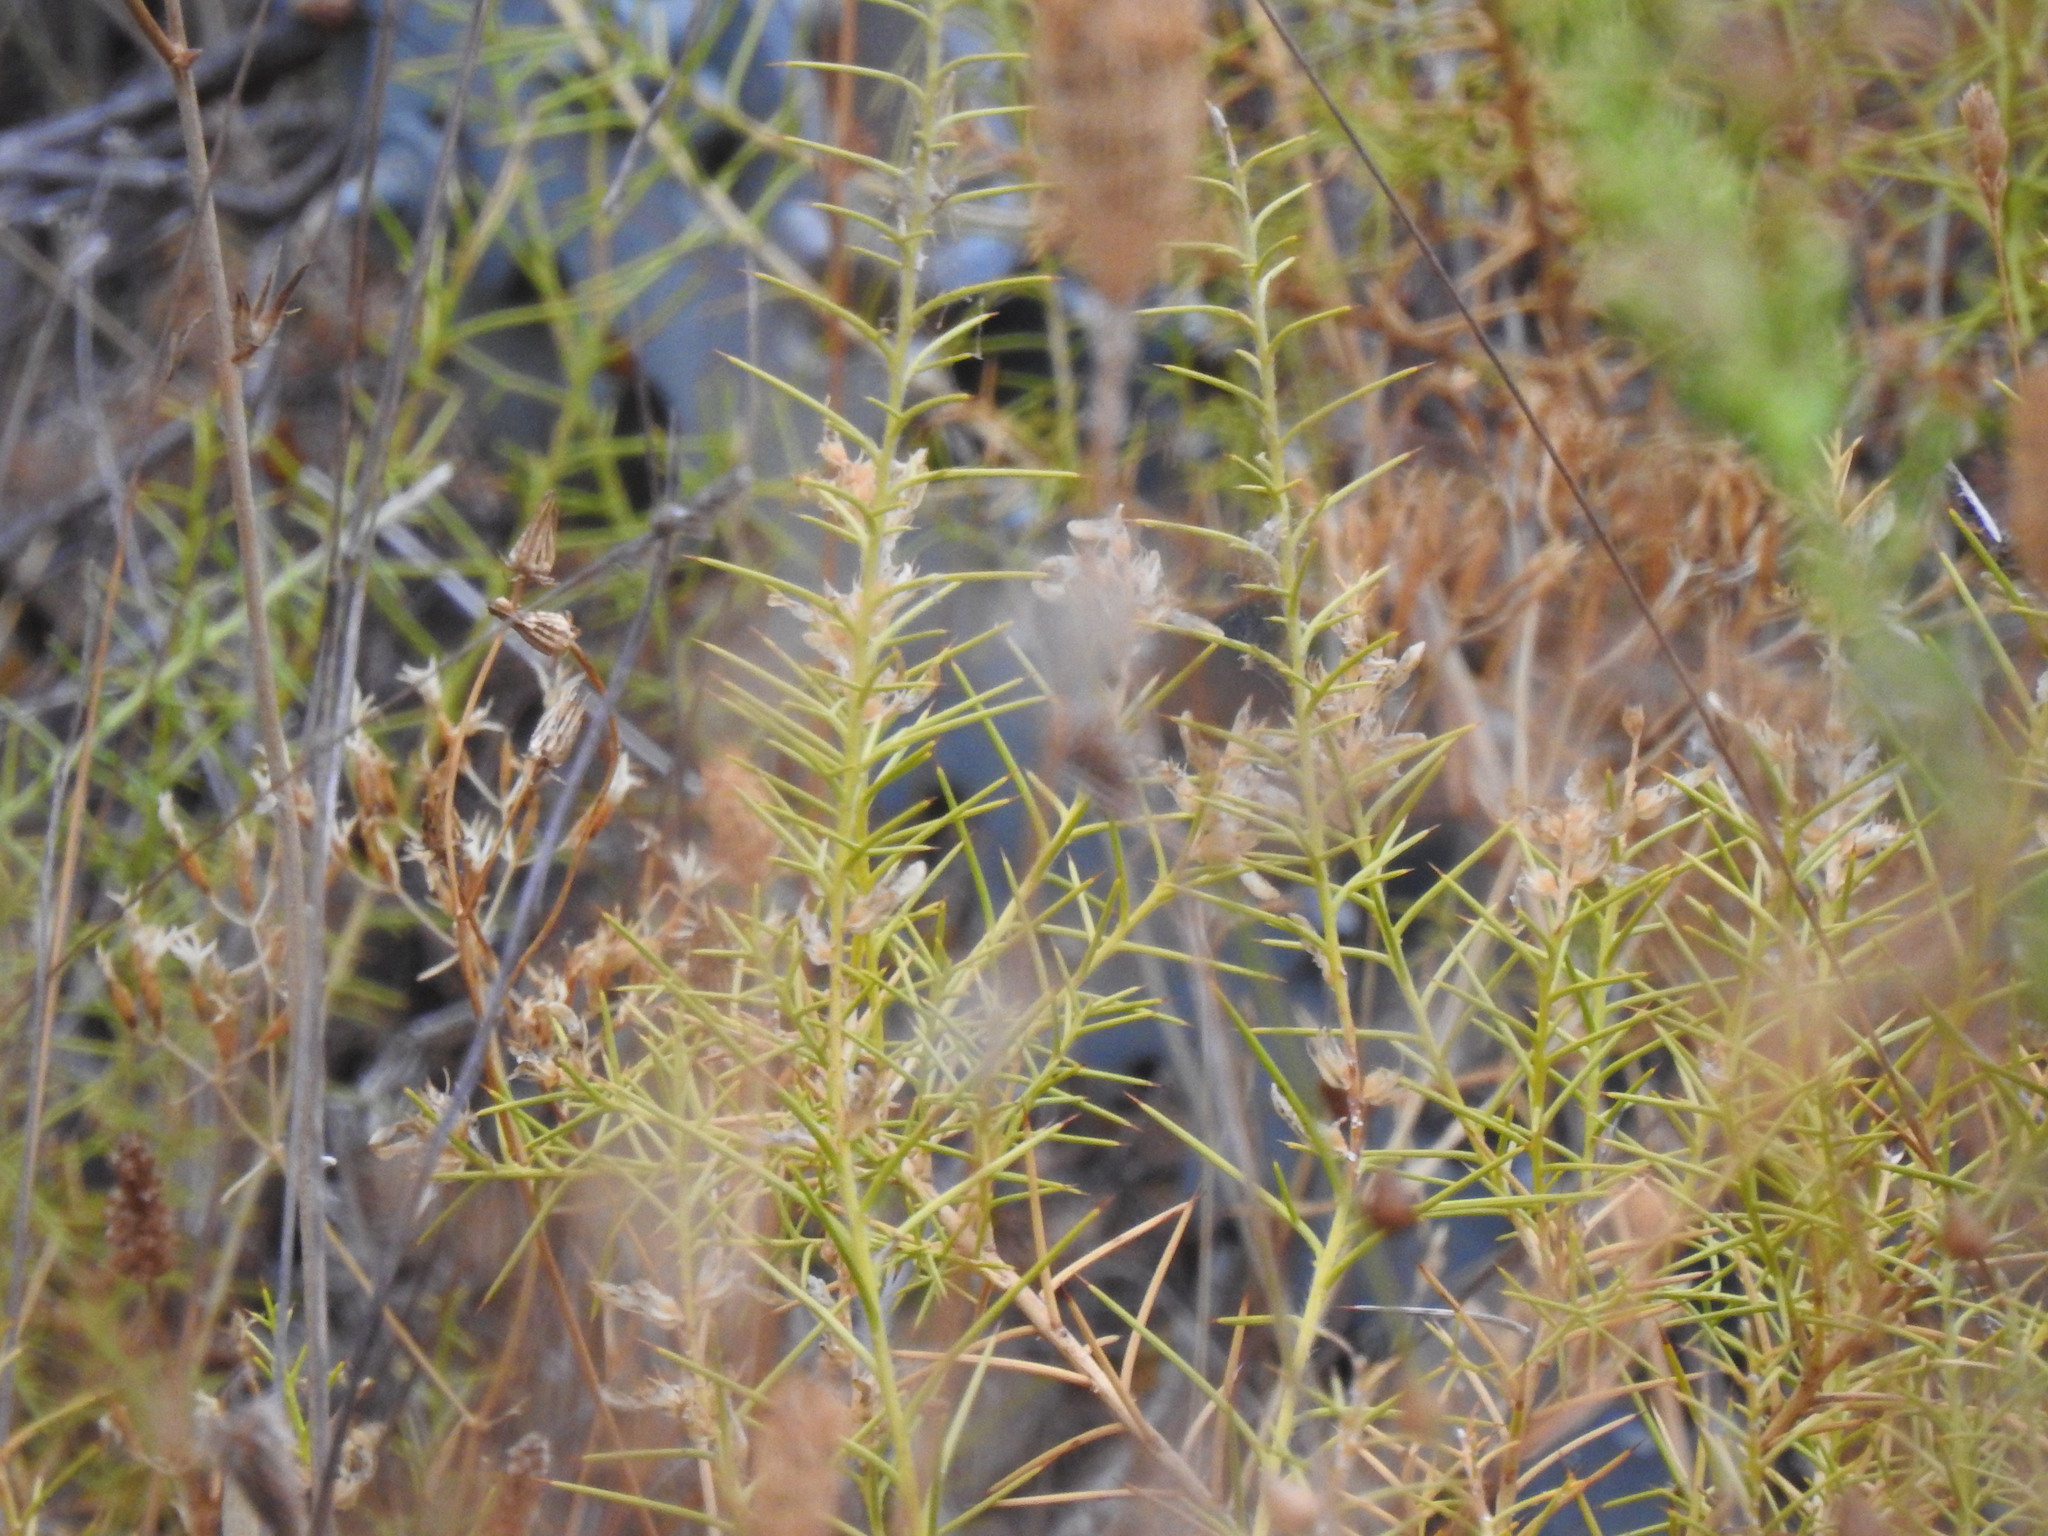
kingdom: Plantae
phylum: Tracheophyta
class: Magnoliopsida
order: Fabales
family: Fabaceae
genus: Genista
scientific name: Genista hirsuta
